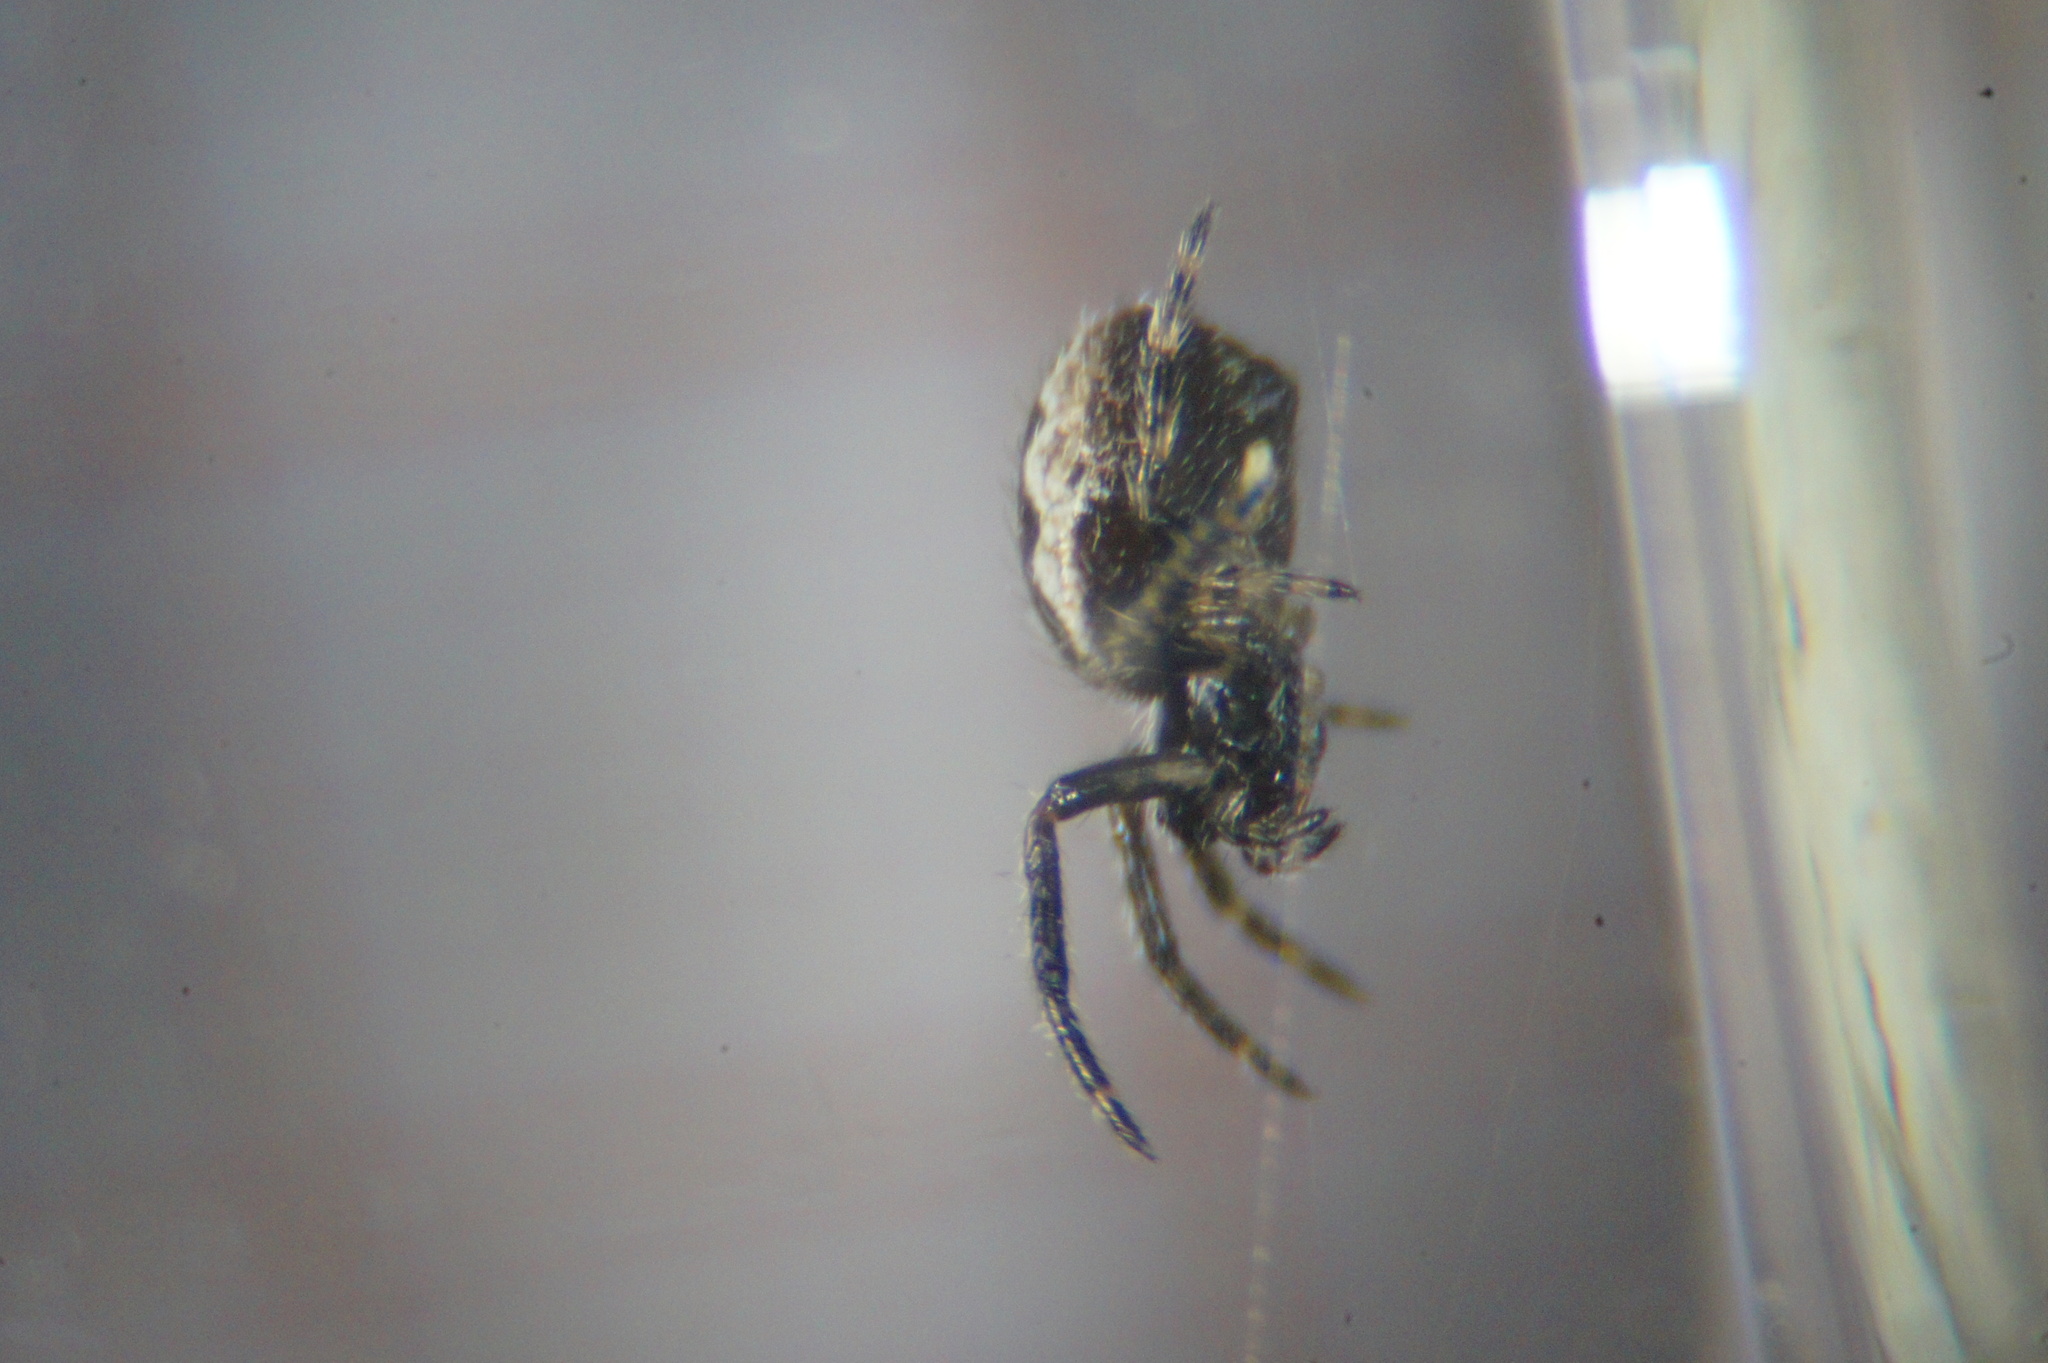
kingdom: Animalia
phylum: Arthropoda
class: Arachnida
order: Araneae
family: Araneidae
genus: Nuctenea
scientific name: Nuctenea umbratica
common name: Toad spider
